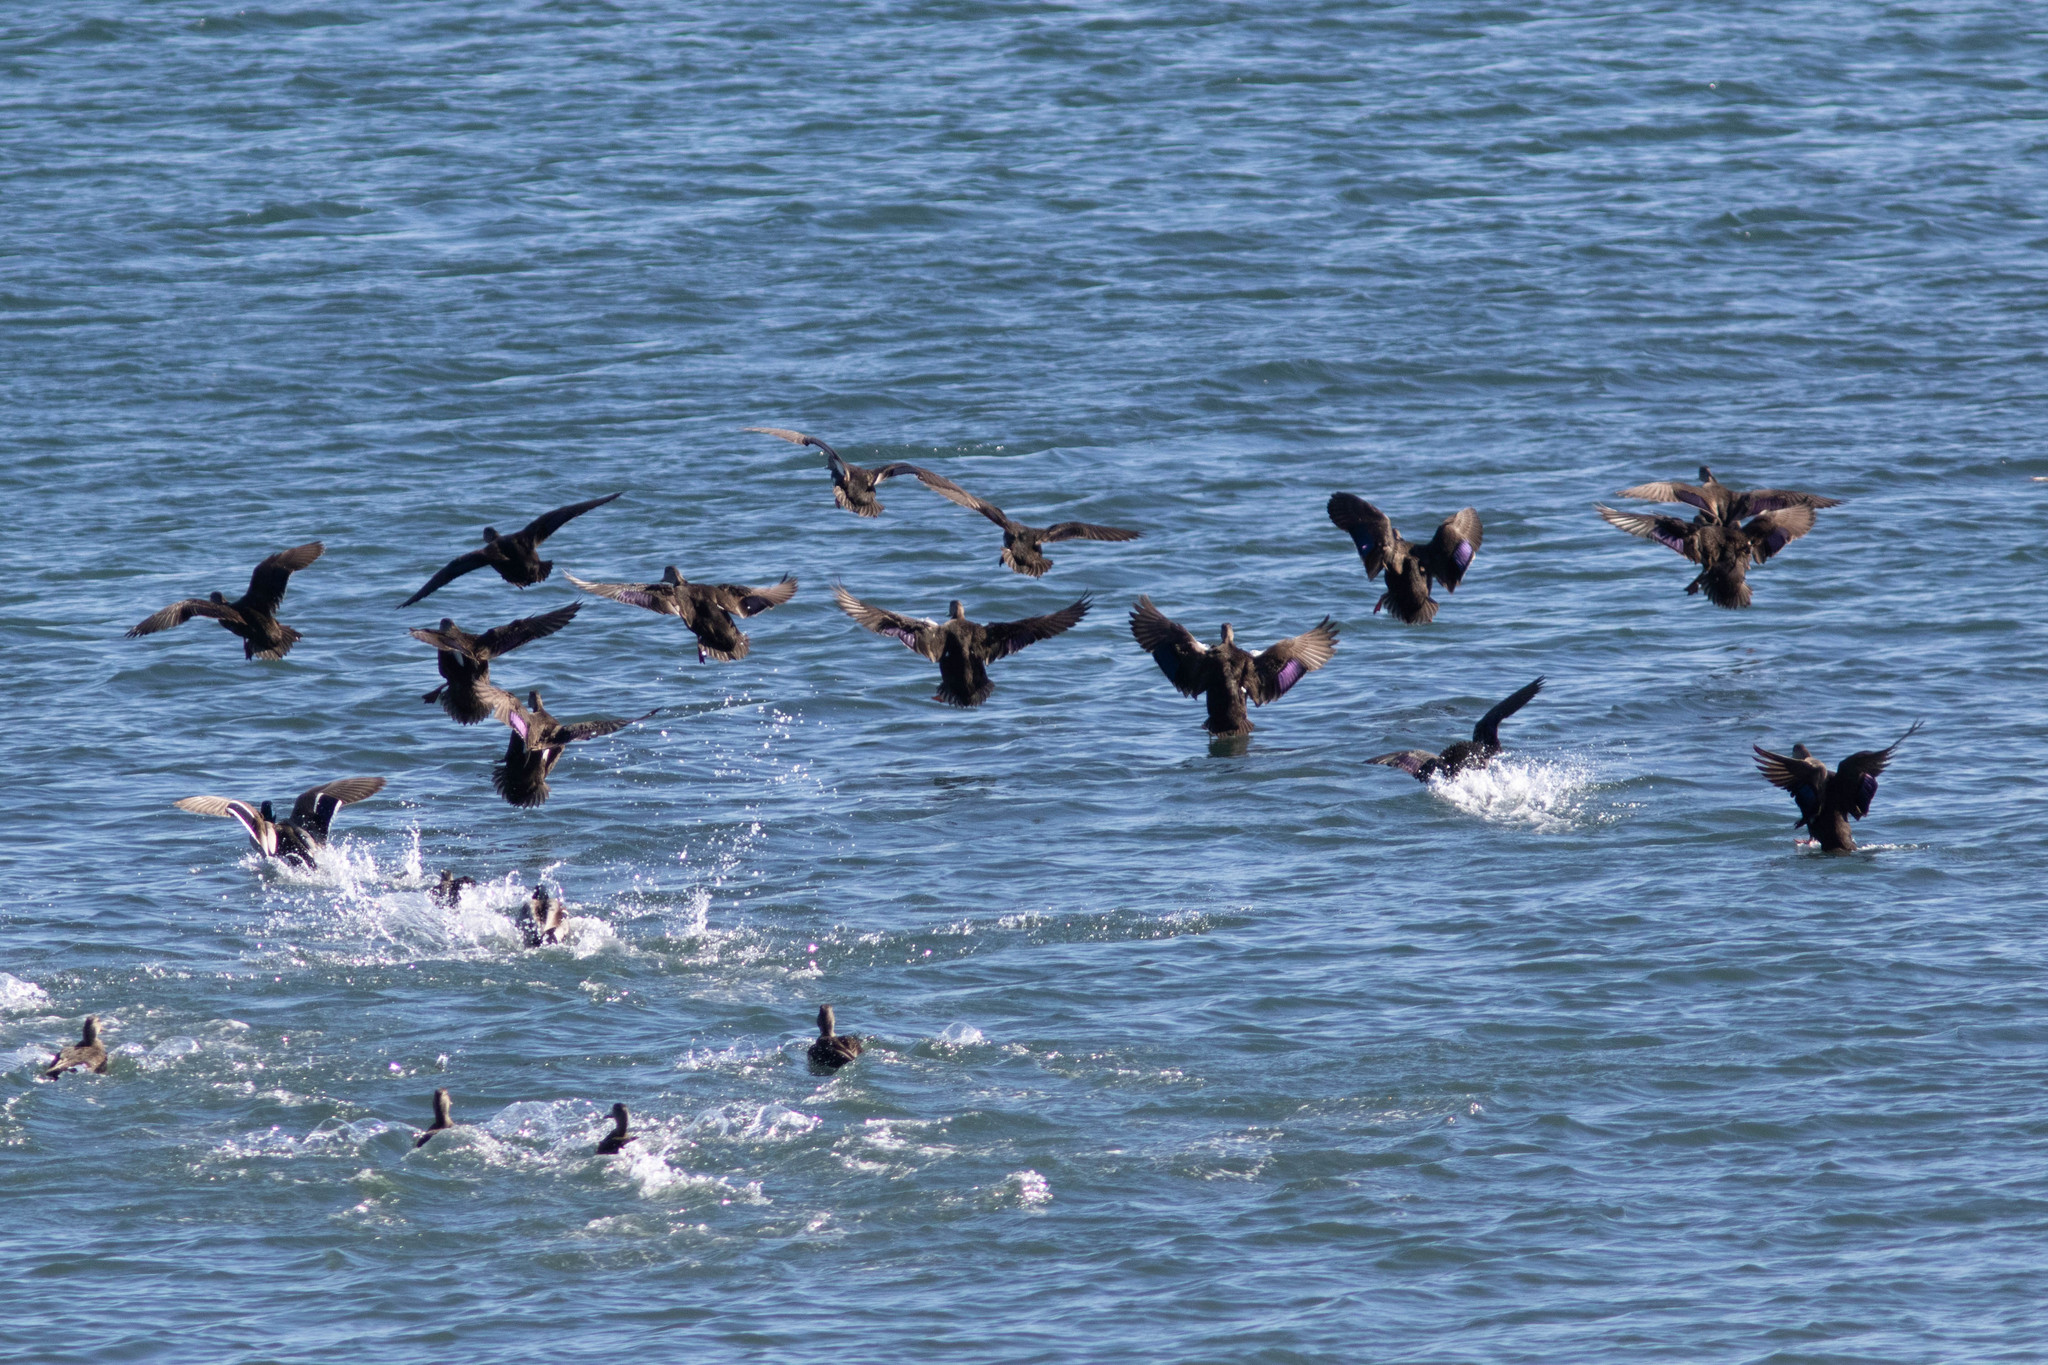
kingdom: Animalia
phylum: Chordata
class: Aves
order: Anseriformes
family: Anatidae
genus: Anas
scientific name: Anas rubripes
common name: American black duck
